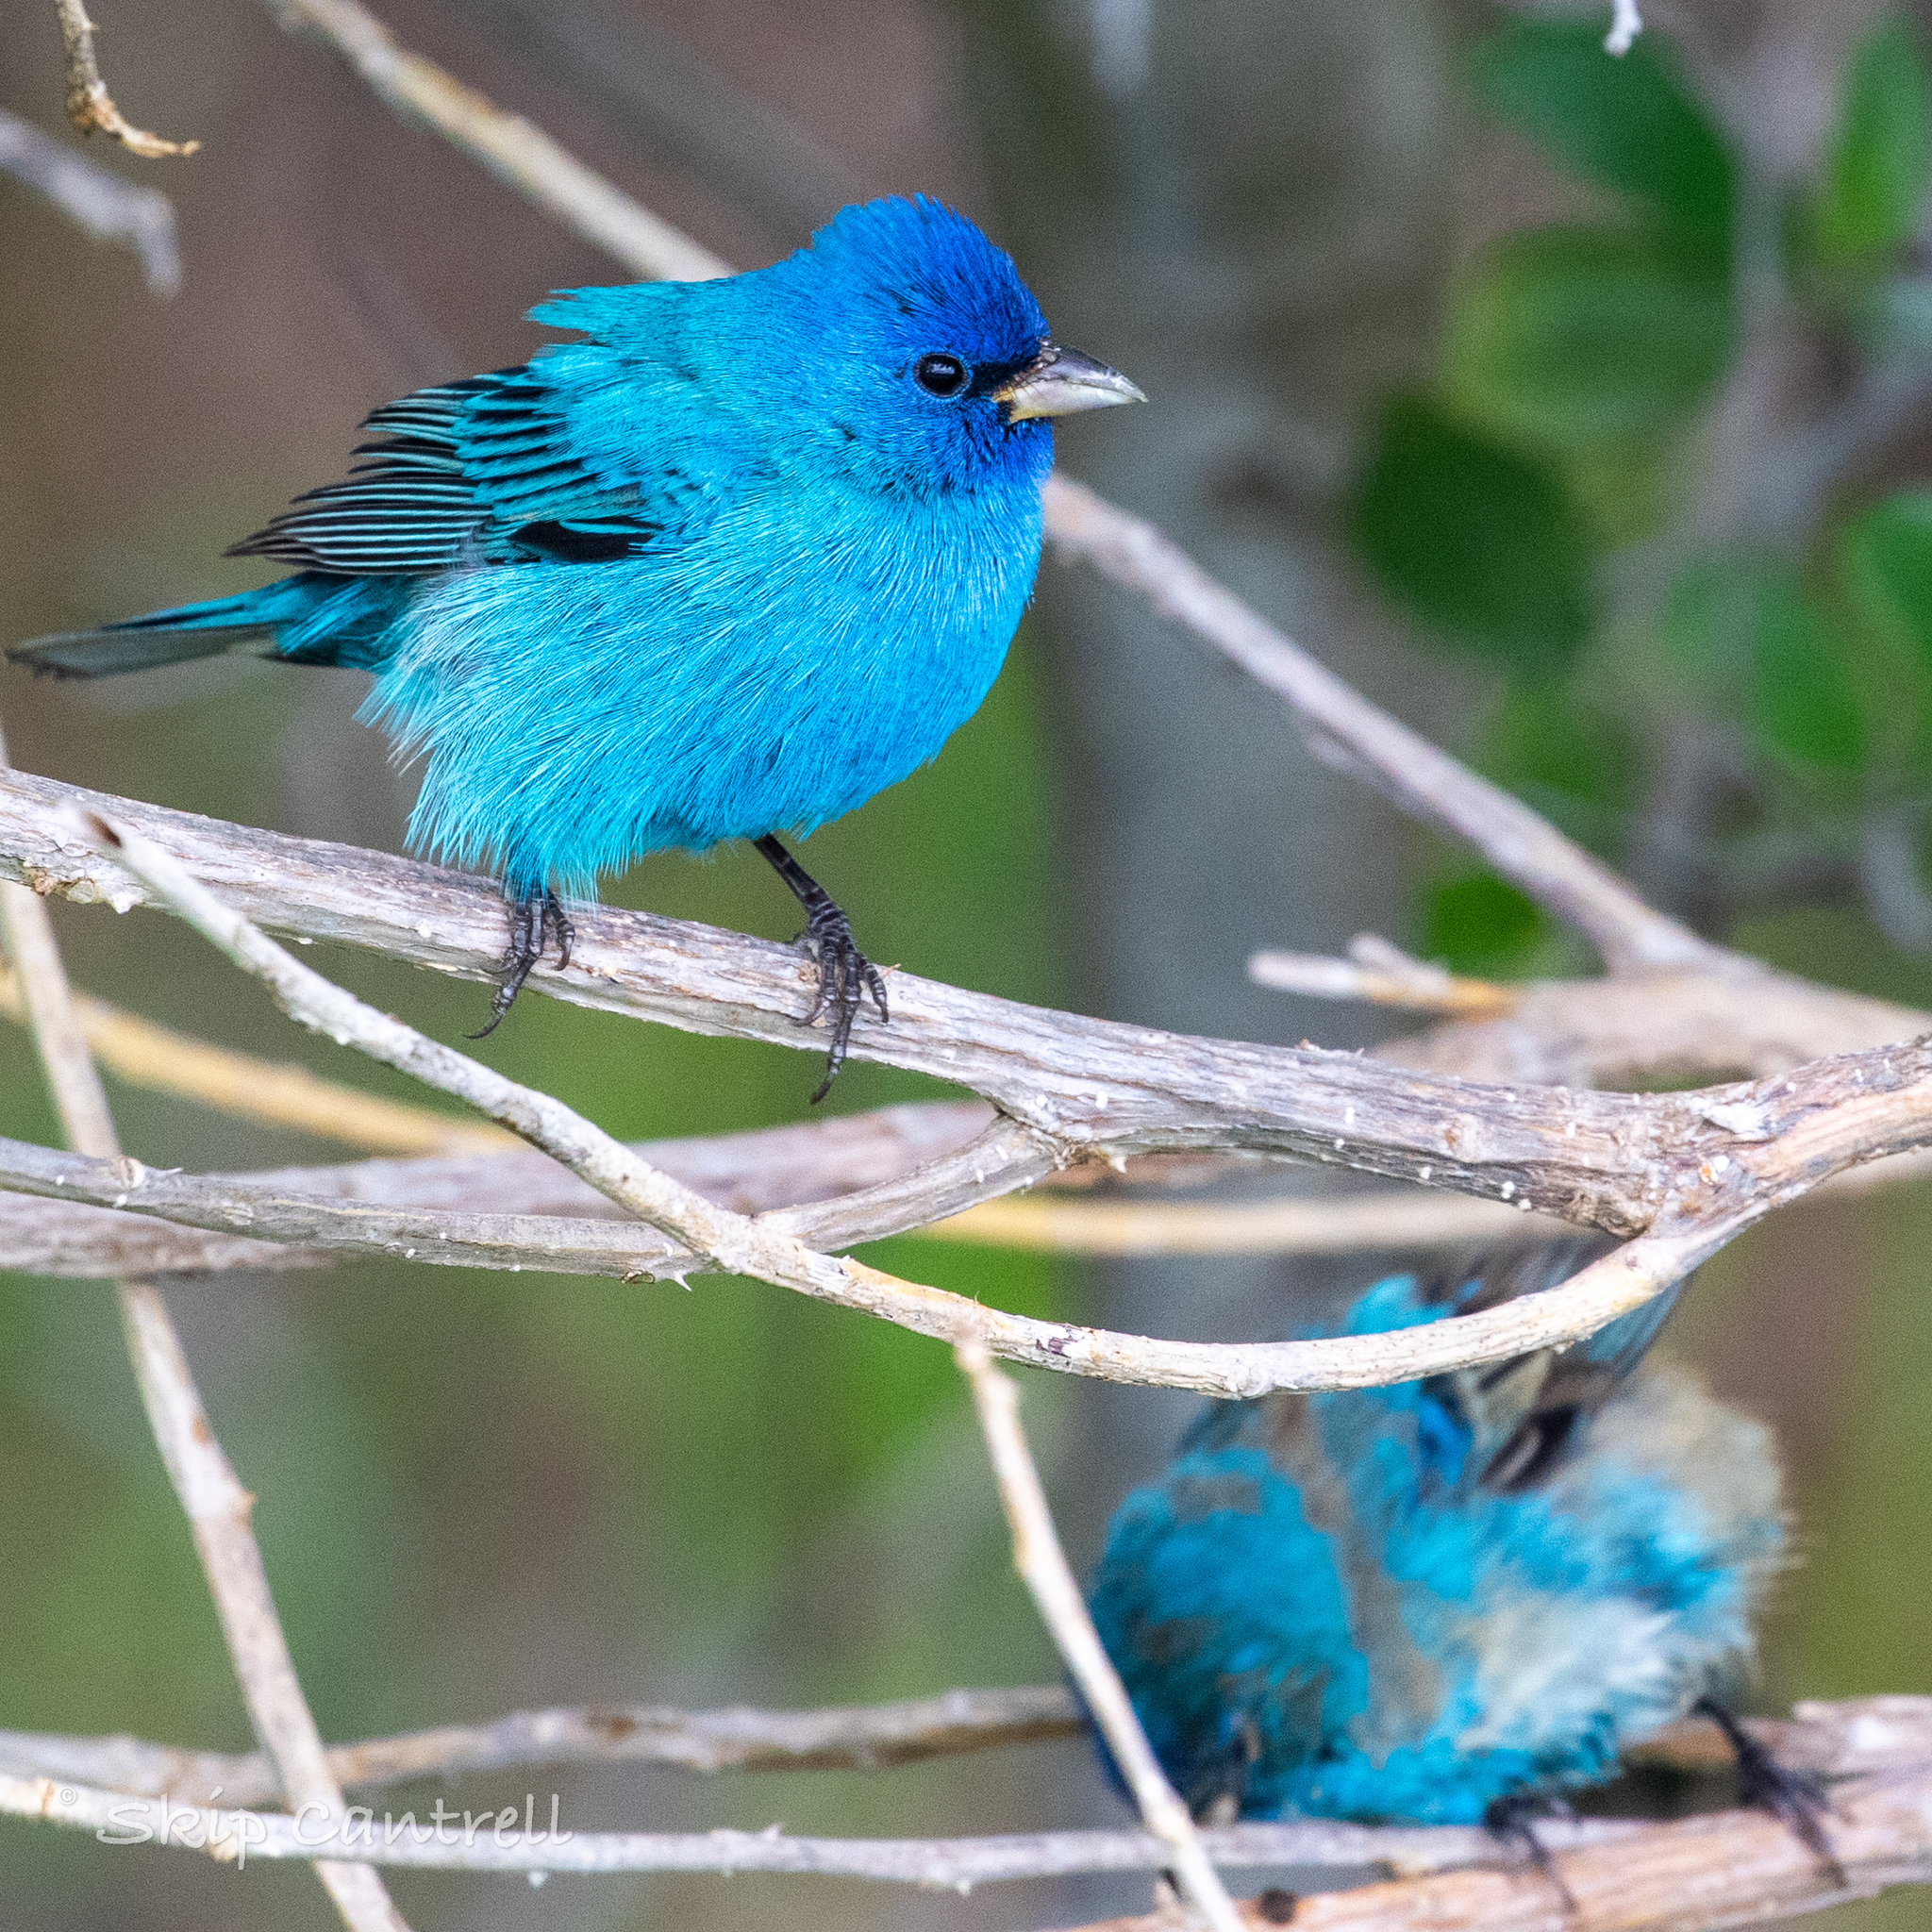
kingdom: Animalia
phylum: Chordata
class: Aves
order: Passeriformes
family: Cardinalidae
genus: Passerina
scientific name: Passerina cyanea
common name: Indigo bunting
